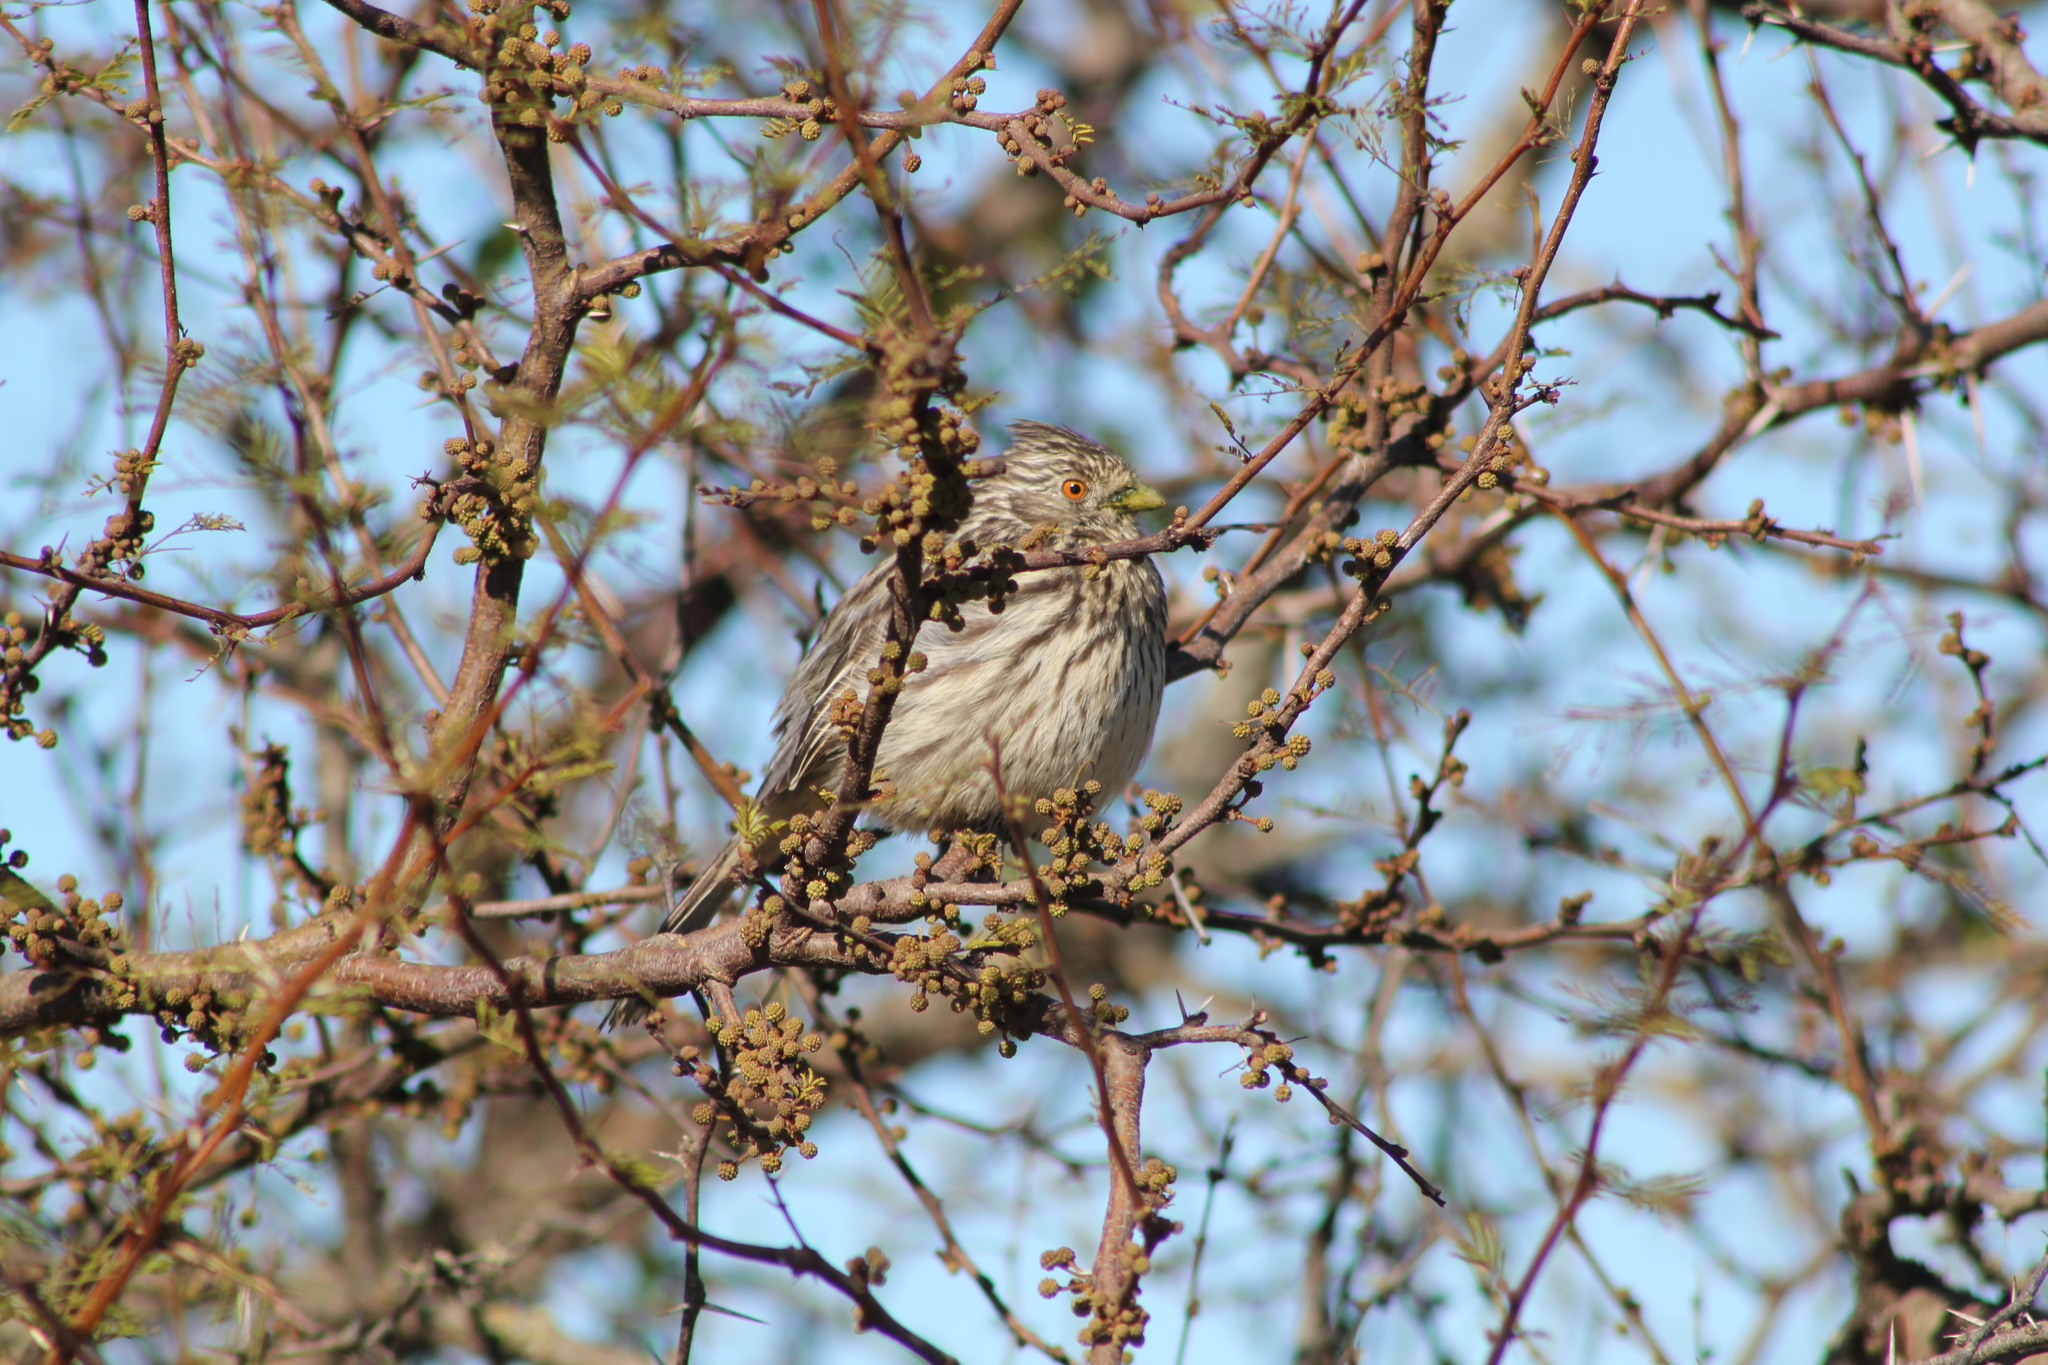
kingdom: Animalia
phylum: Chordata
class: Aves
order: Passeriformes
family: Cotingidae
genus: Phytotoma
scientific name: Phytotoma rutila
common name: White-tipped plantcutter
